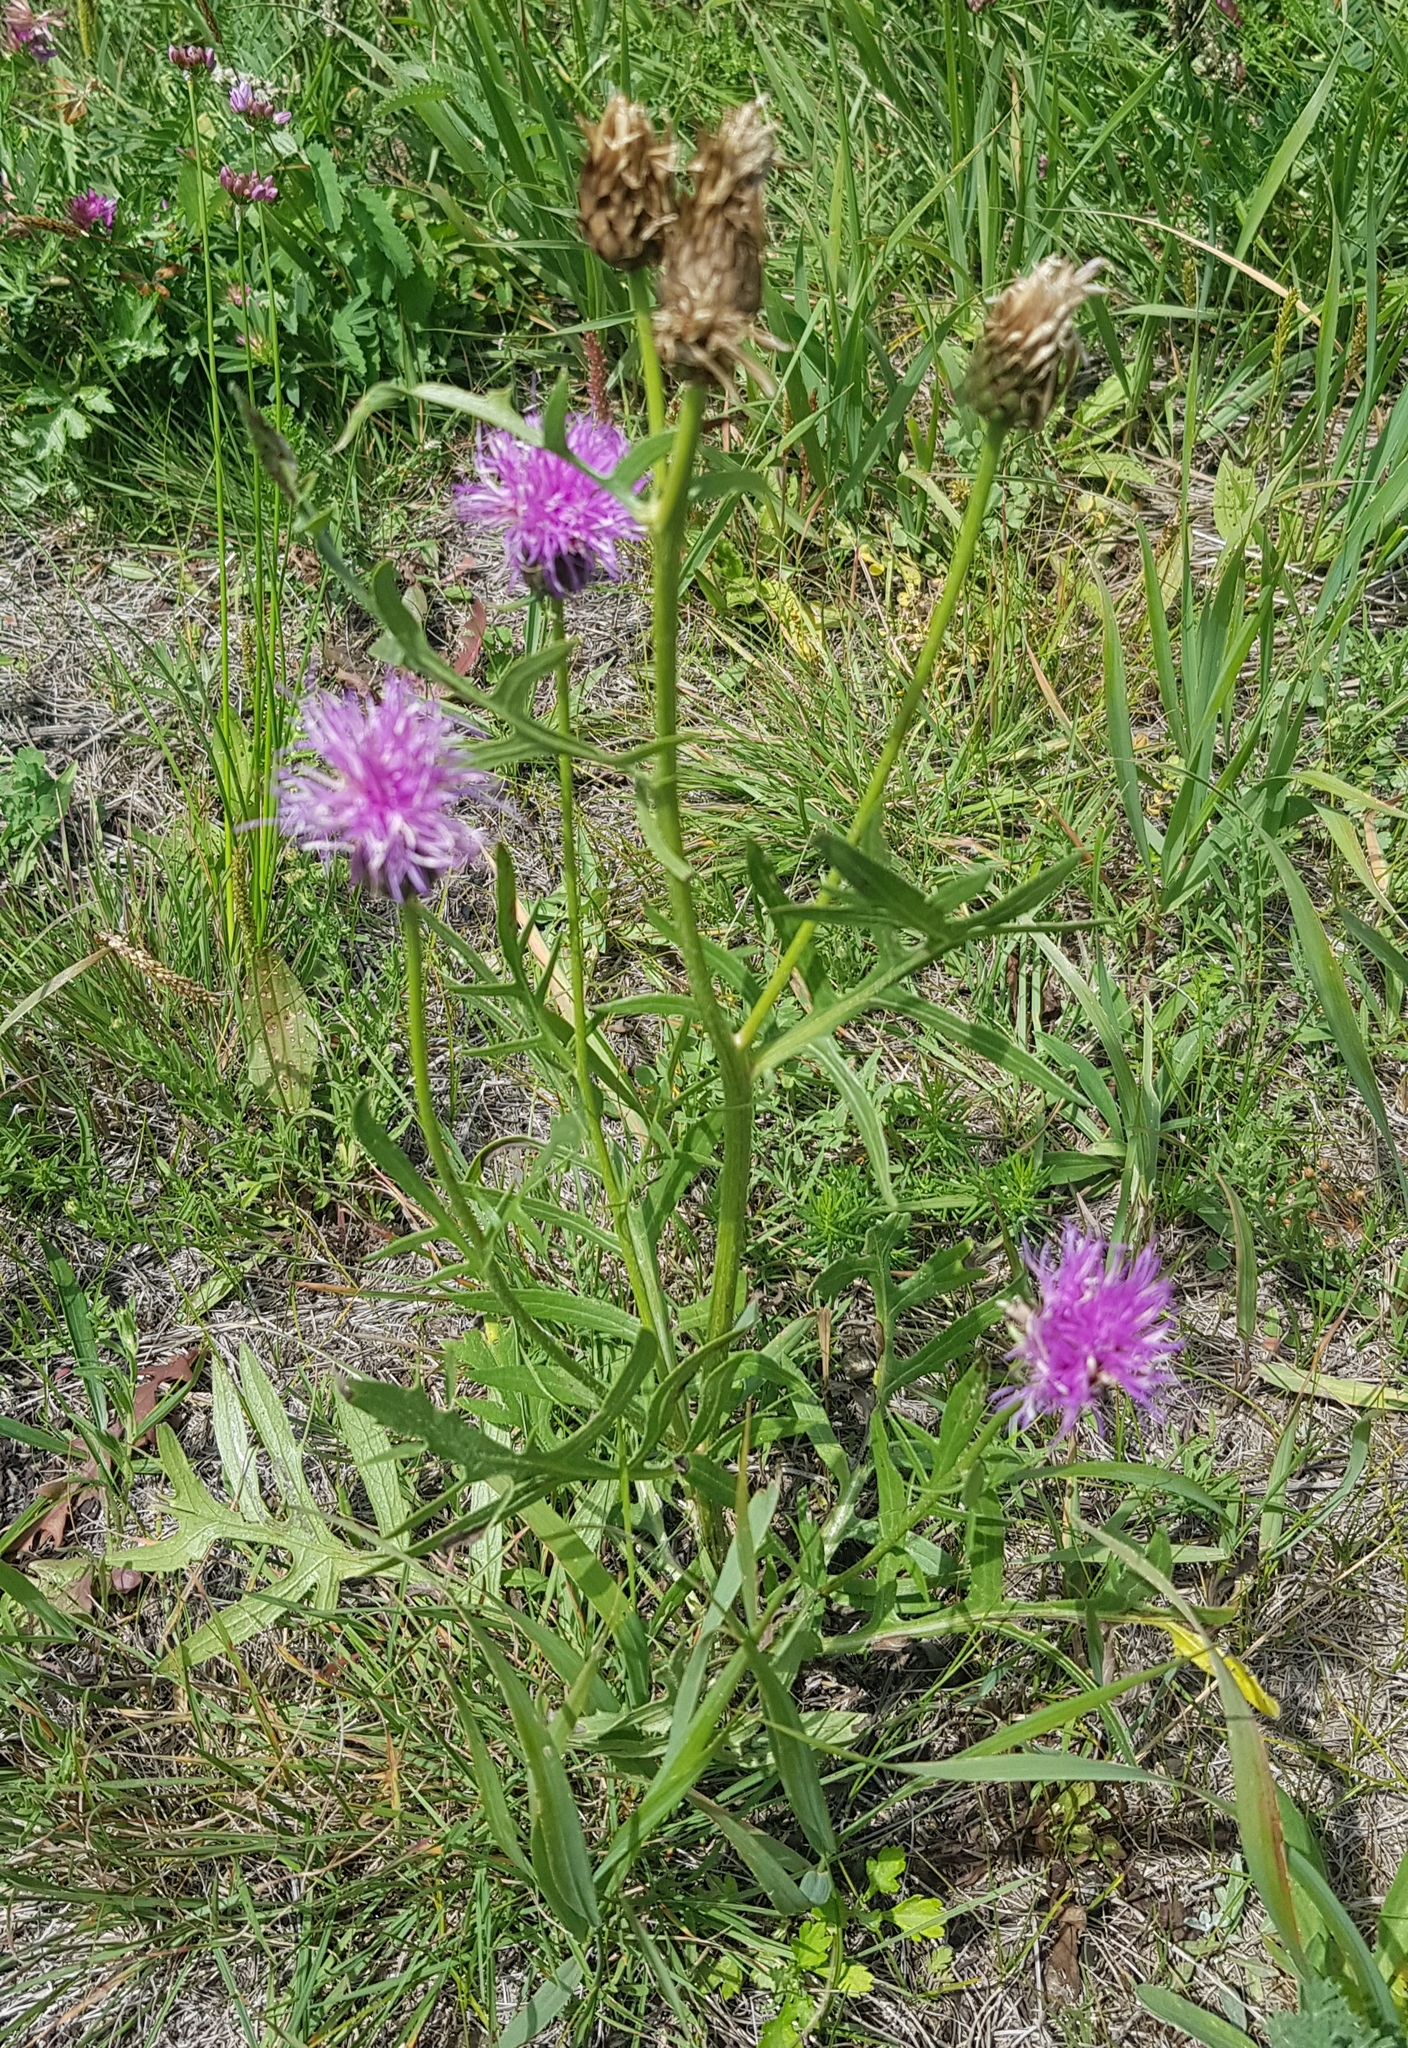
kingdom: Plantae
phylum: Tracheophyta
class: Magnoliopsida
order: Asterales
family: Asteraceae
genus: Klasea
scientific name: Klasea centauroides
